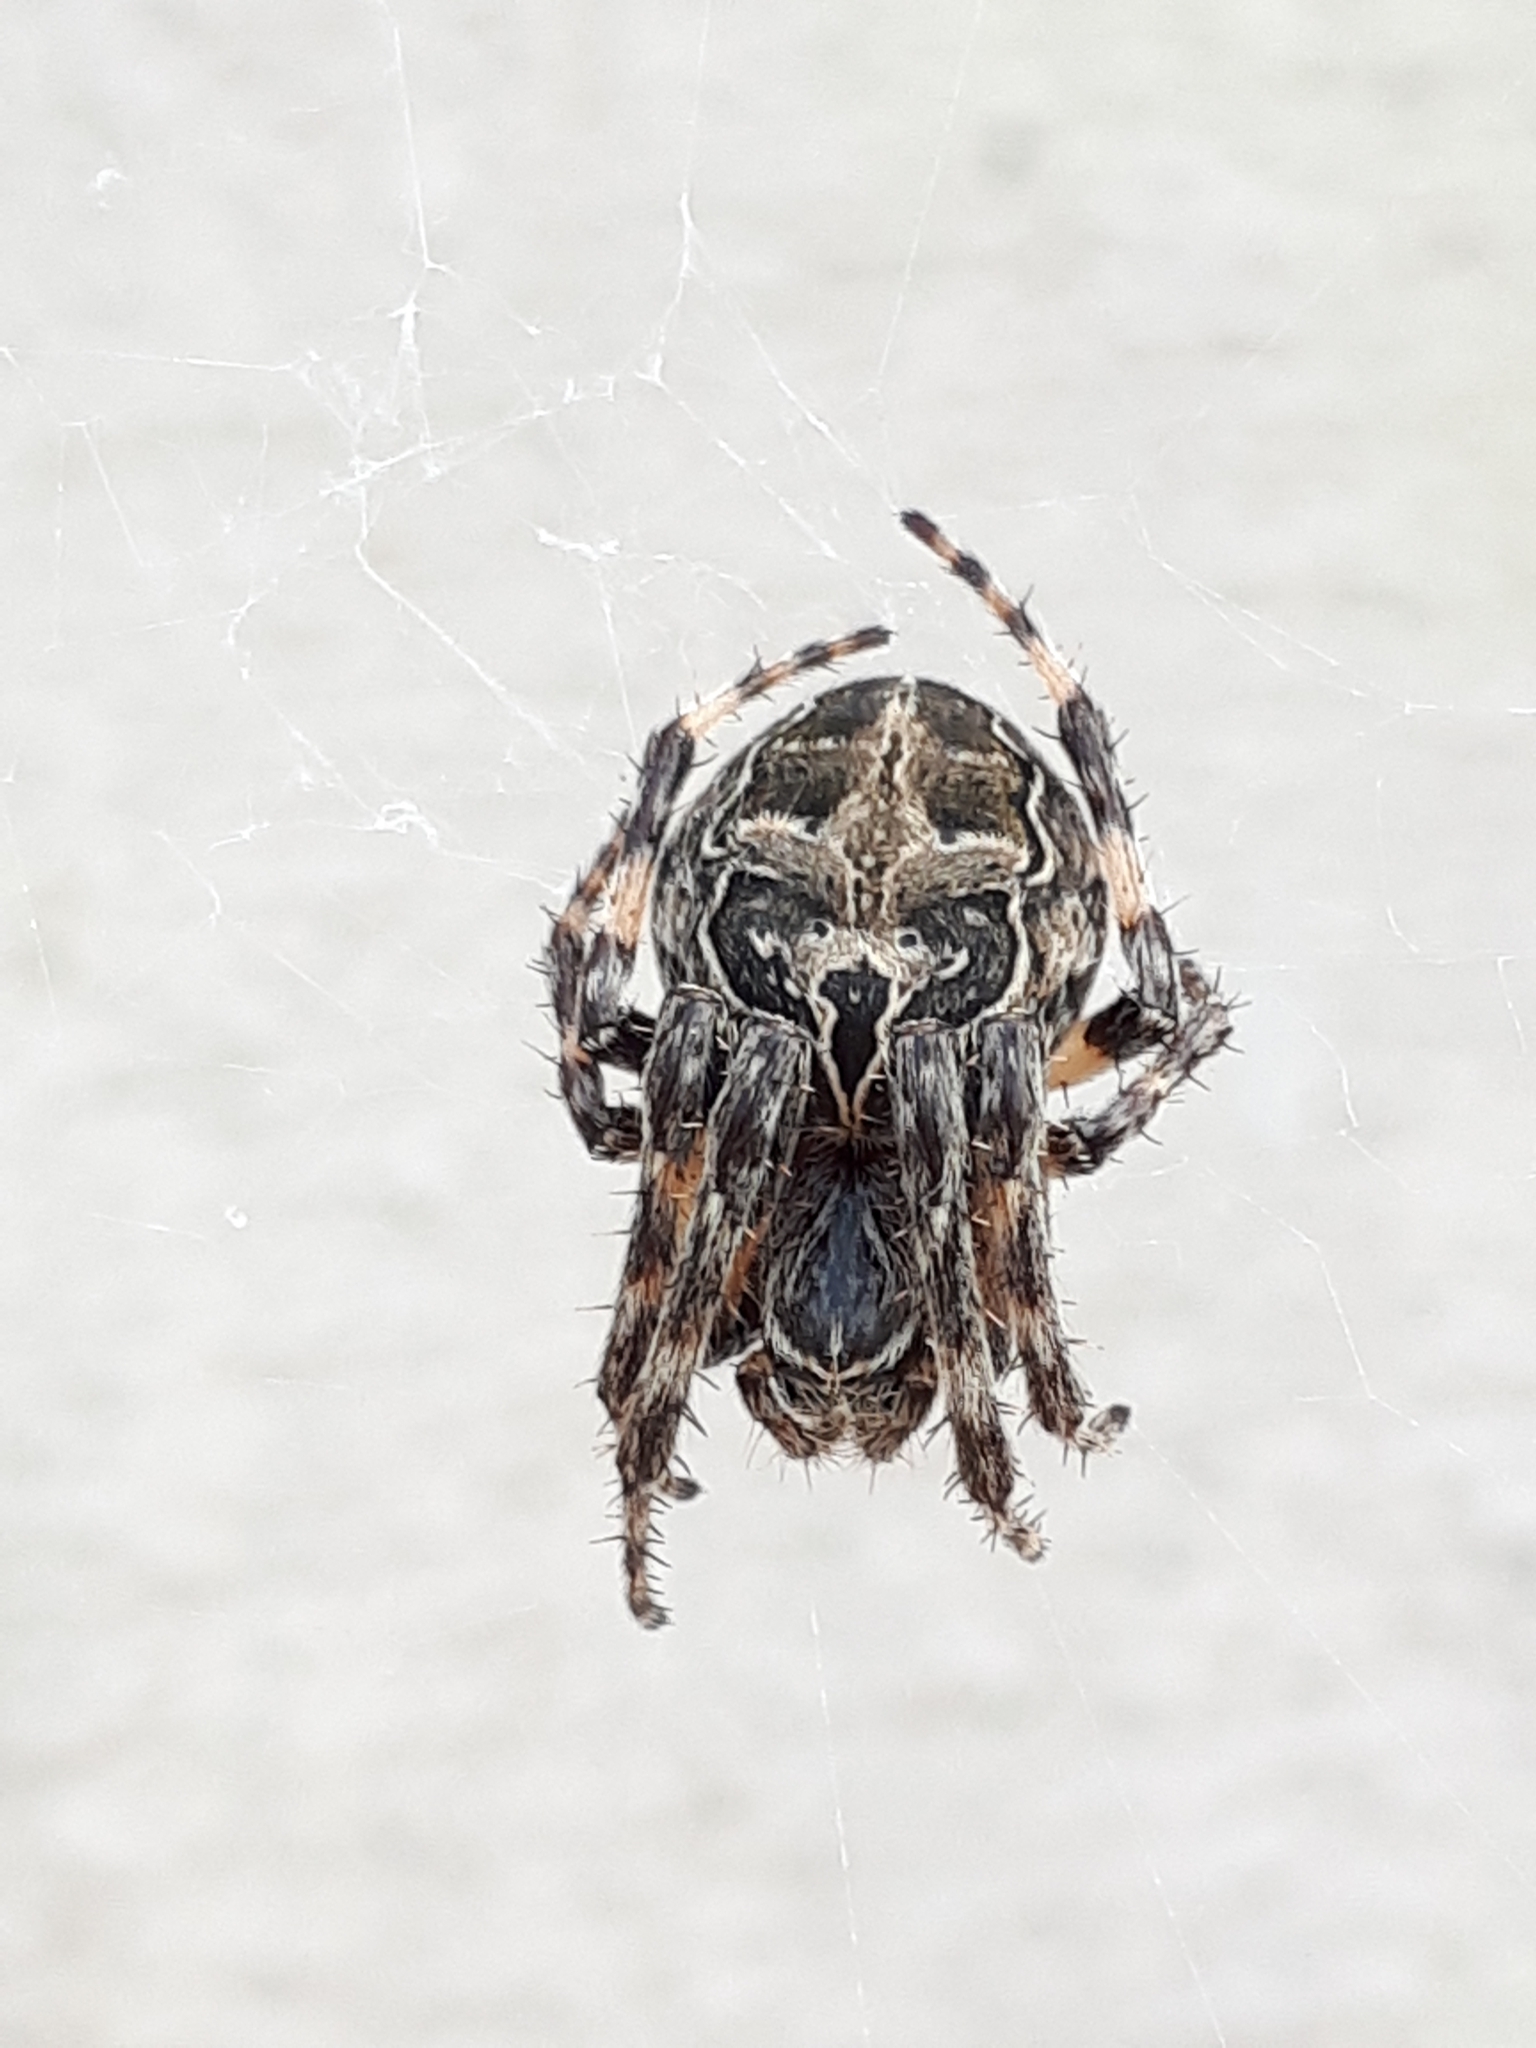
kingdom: Animalia
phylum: Arthropoda
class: Arachnida
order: Araneae
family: Araneidae
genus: Larinioides
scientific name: Larinioides sclopetarius
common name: Bridge orbweaver
